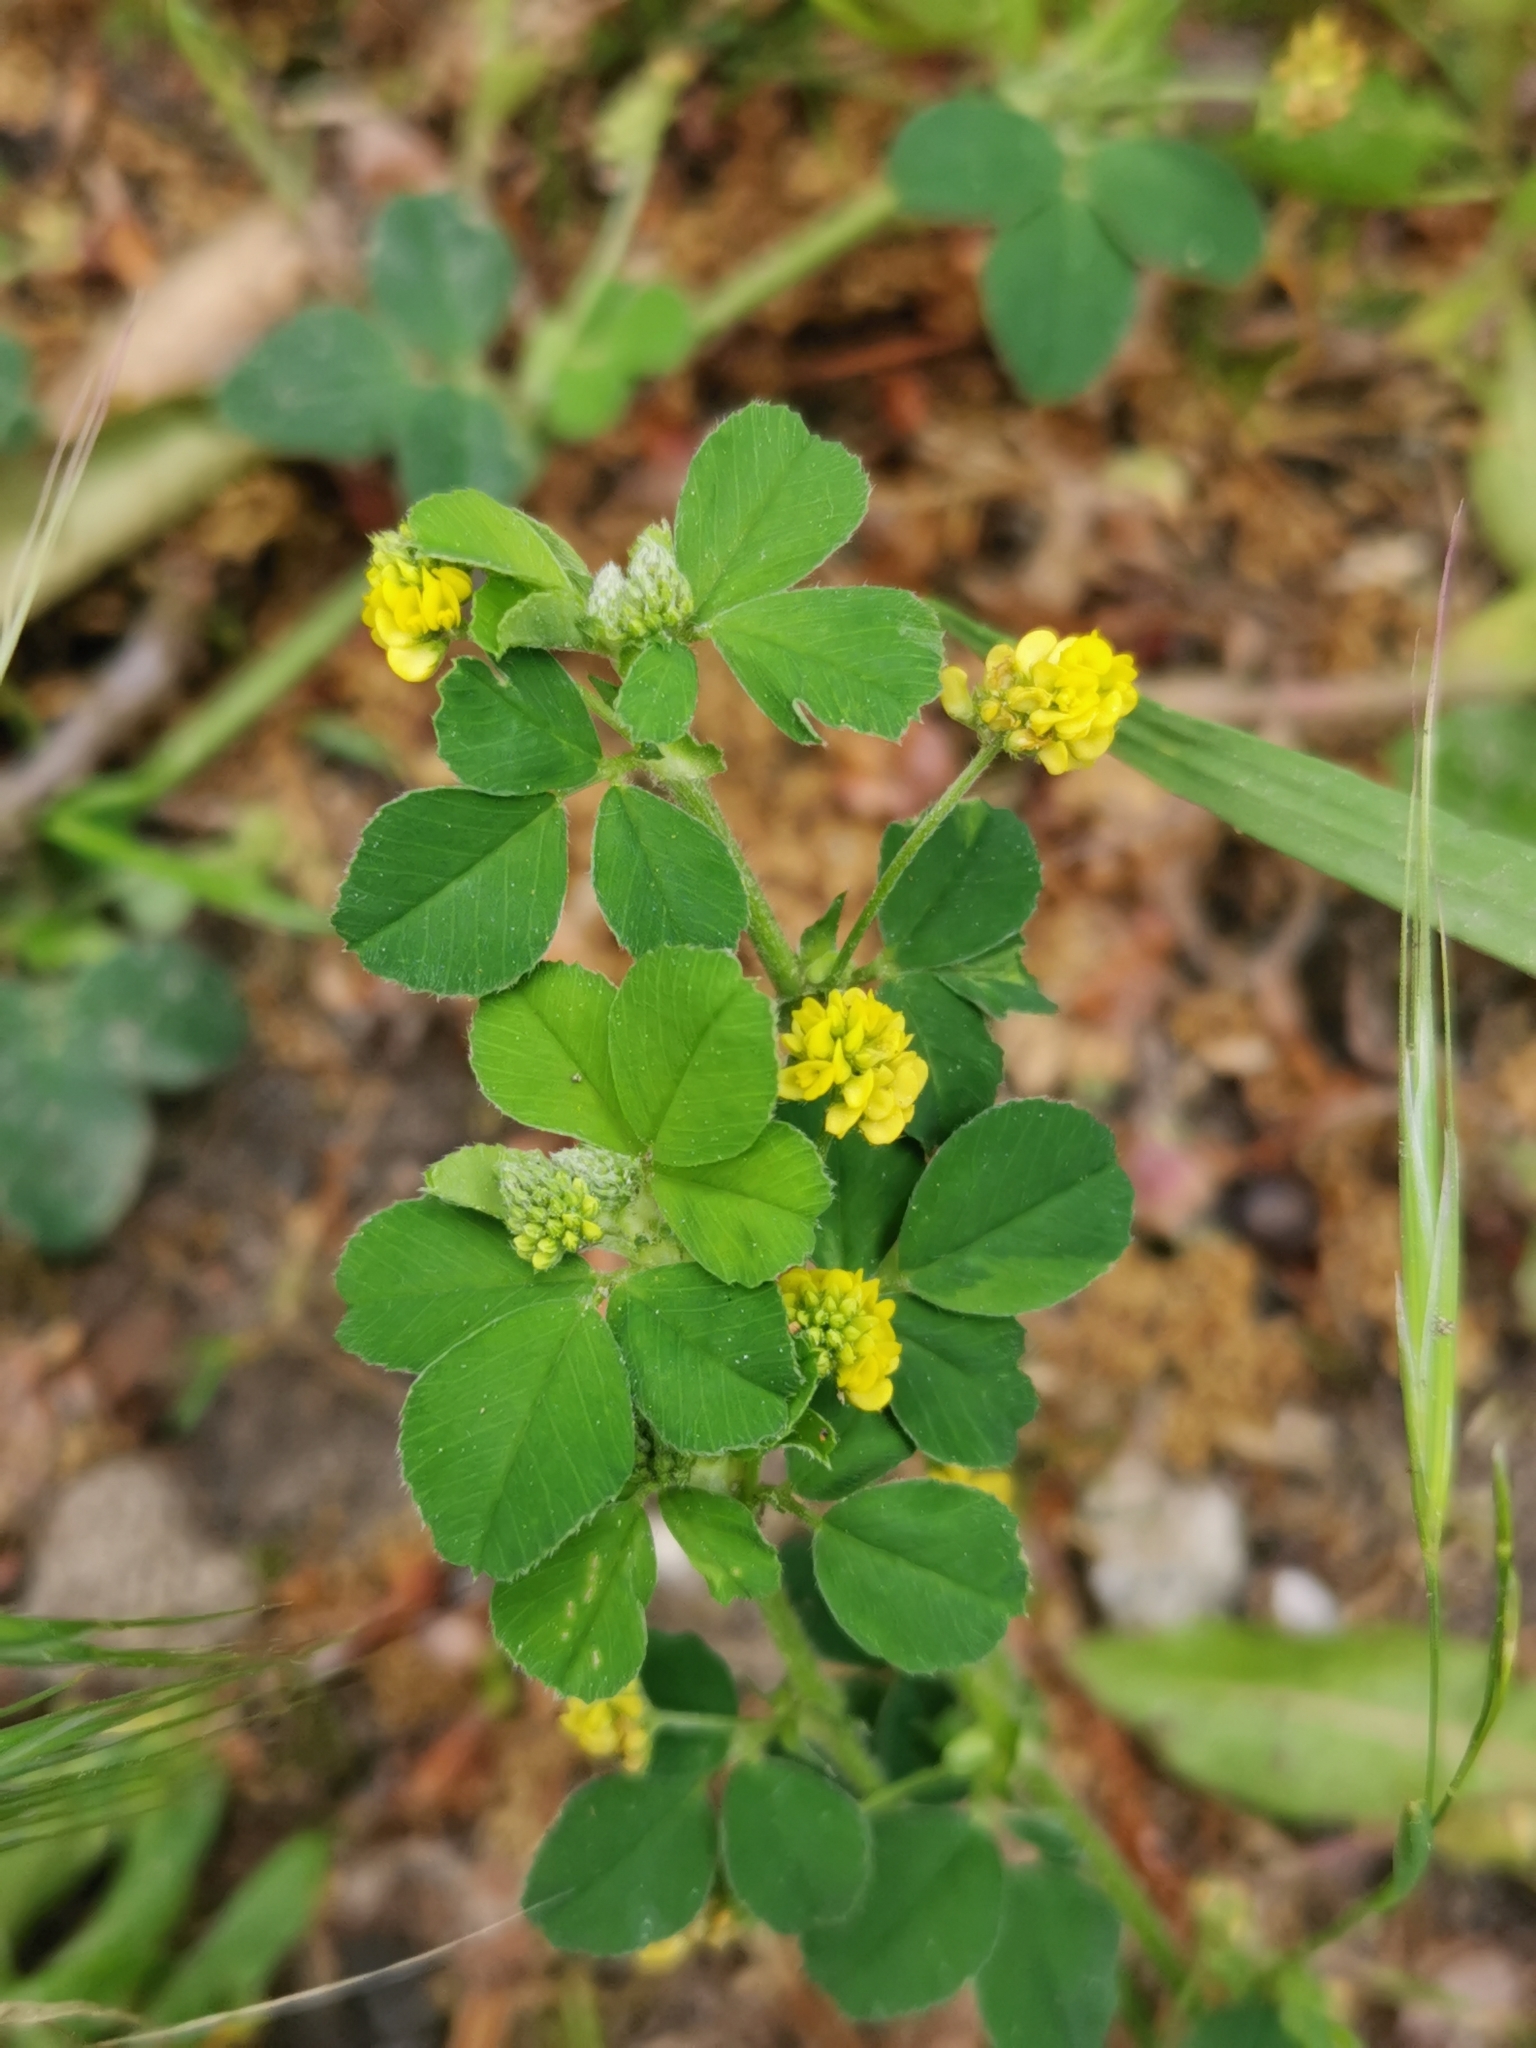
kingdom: Plantae
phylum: Tracheophyta
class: Magnoliopsida
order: Fabales
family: Fabaceae
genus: Medicago
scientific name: Medicago lupulina
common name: Black medick
